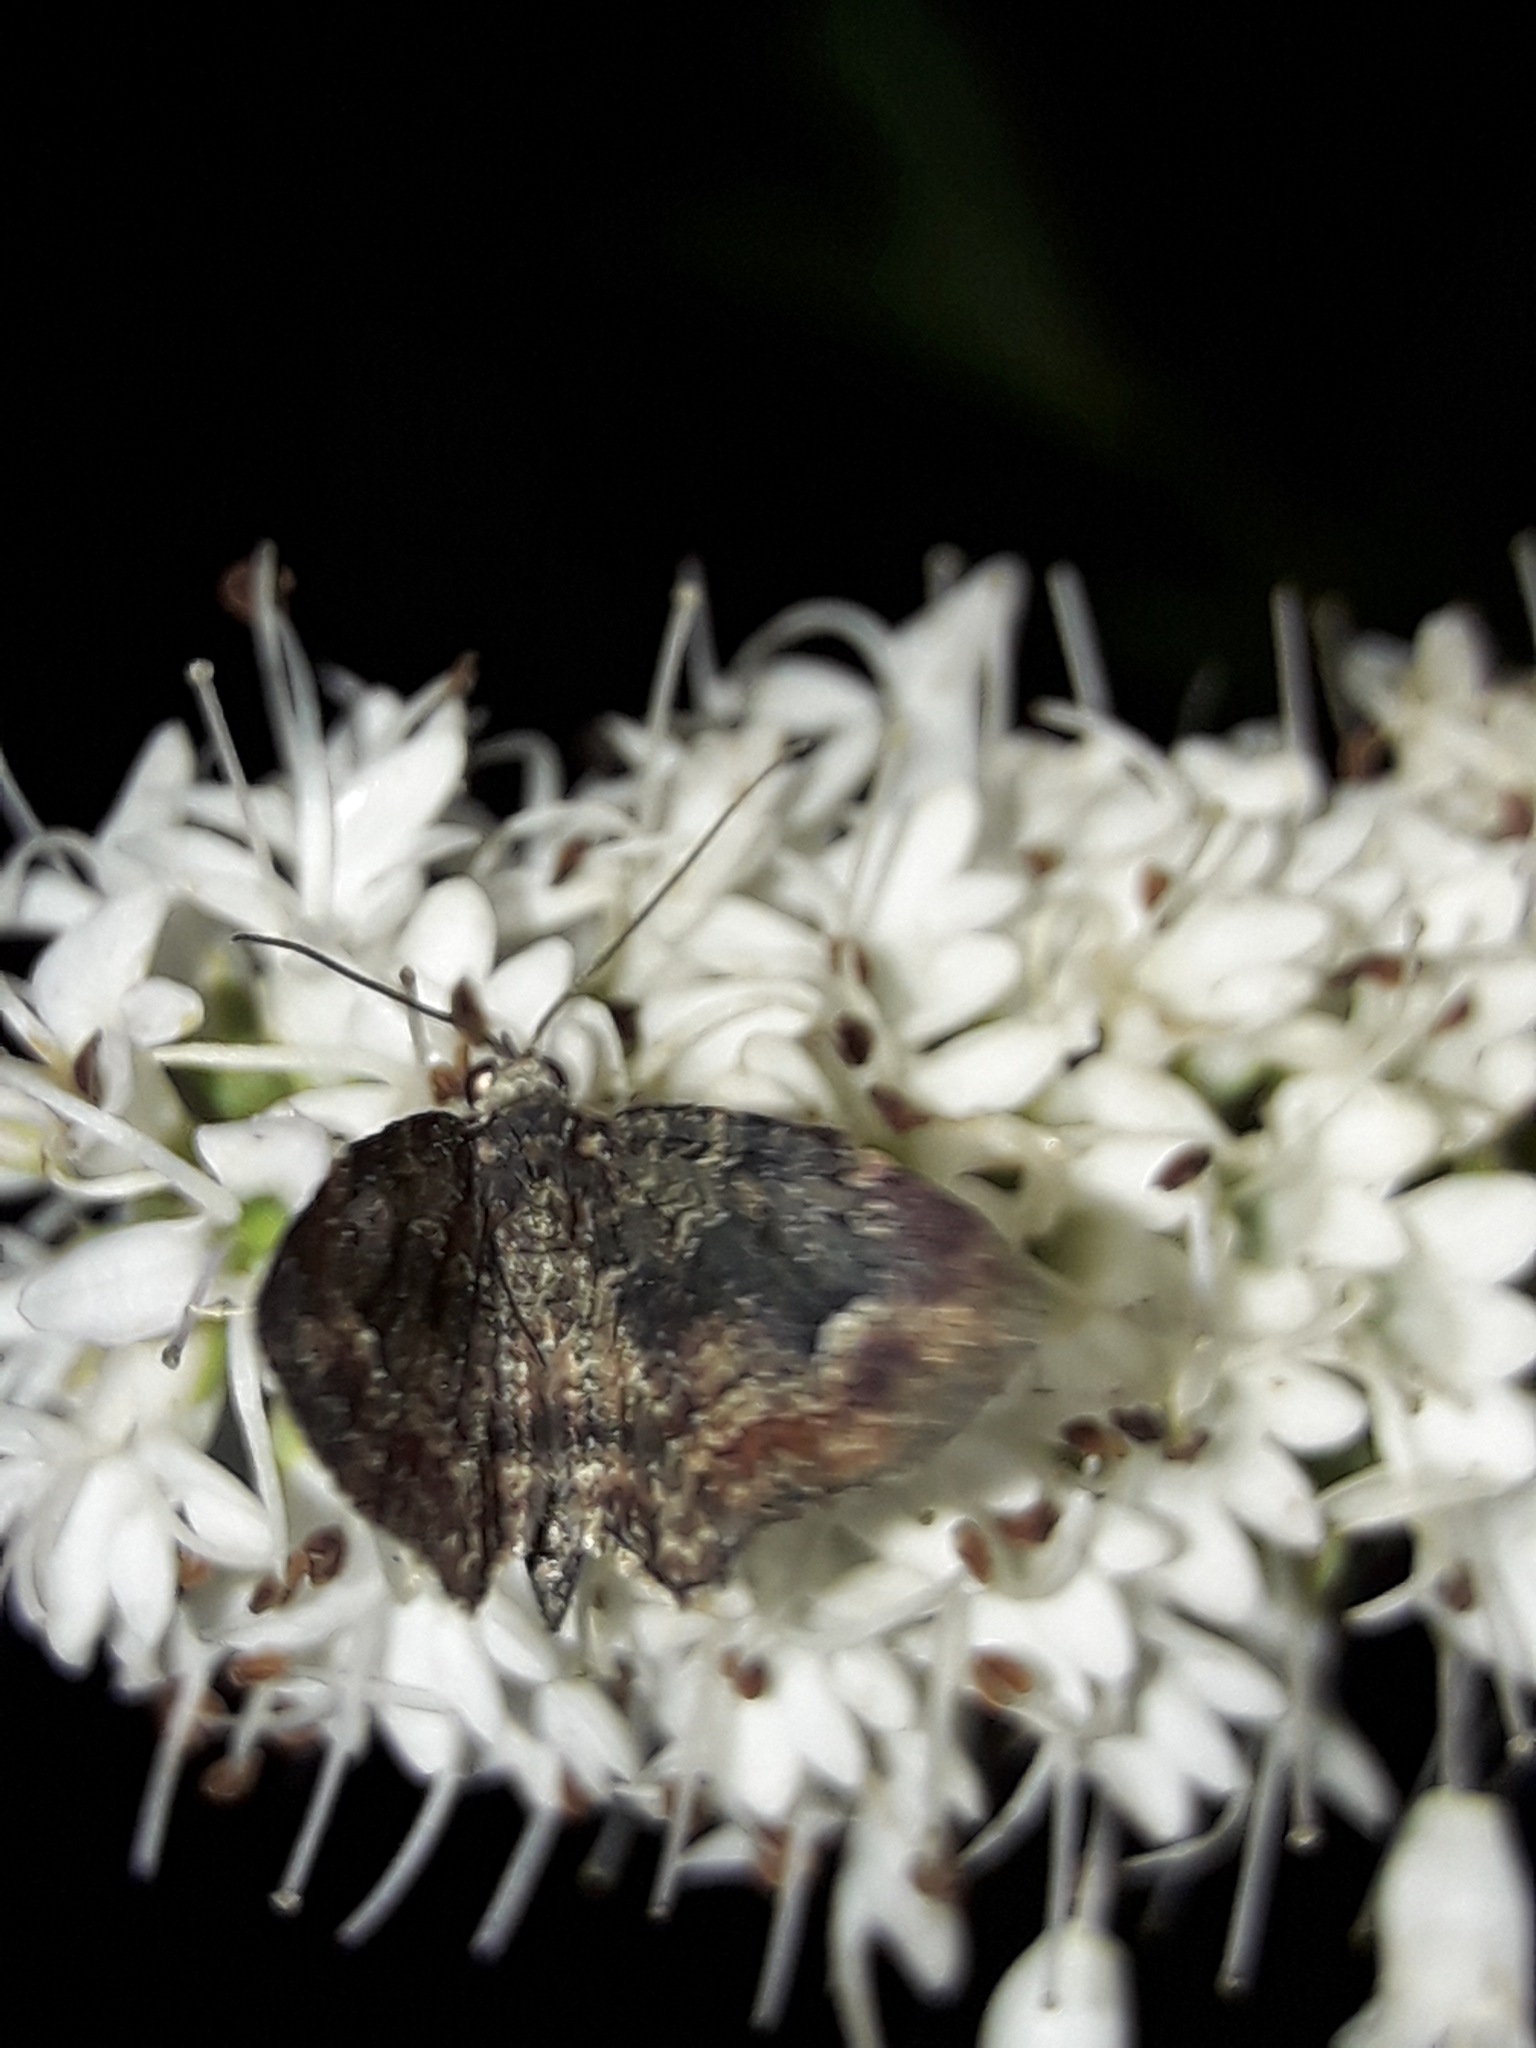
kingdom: Animalia
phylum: Arthropoda
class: Insecta
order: Lepidoptera
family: Geometridae
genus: Pasiphilodes
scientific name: Pasiphilodes testulata
